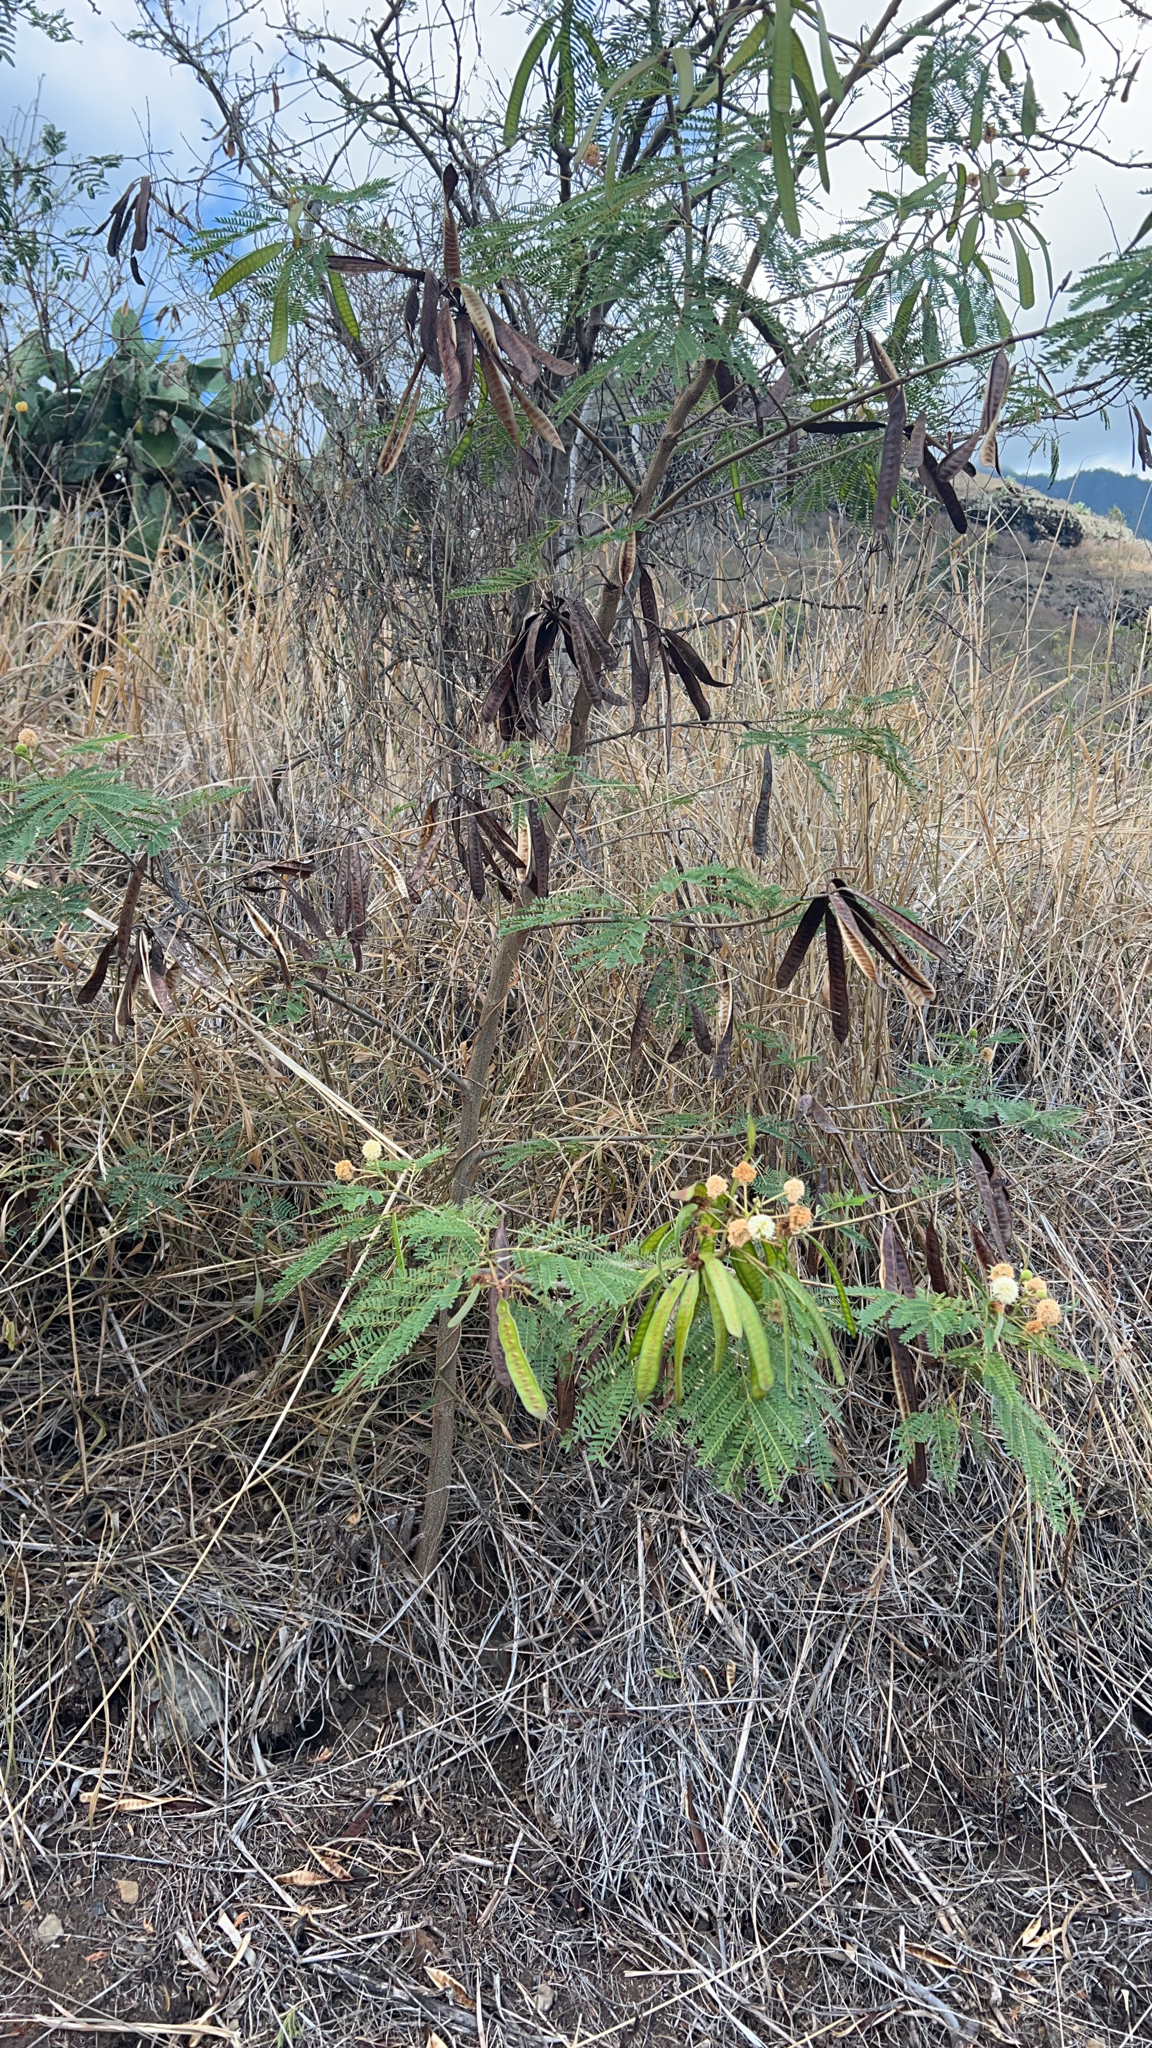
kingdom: Plantae
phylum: Tracheophyta
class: Magnoliopsida
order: Fabales
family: Fabaceae
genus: Leucaena
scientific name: Leucaena leucocephala
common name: White leadtree
